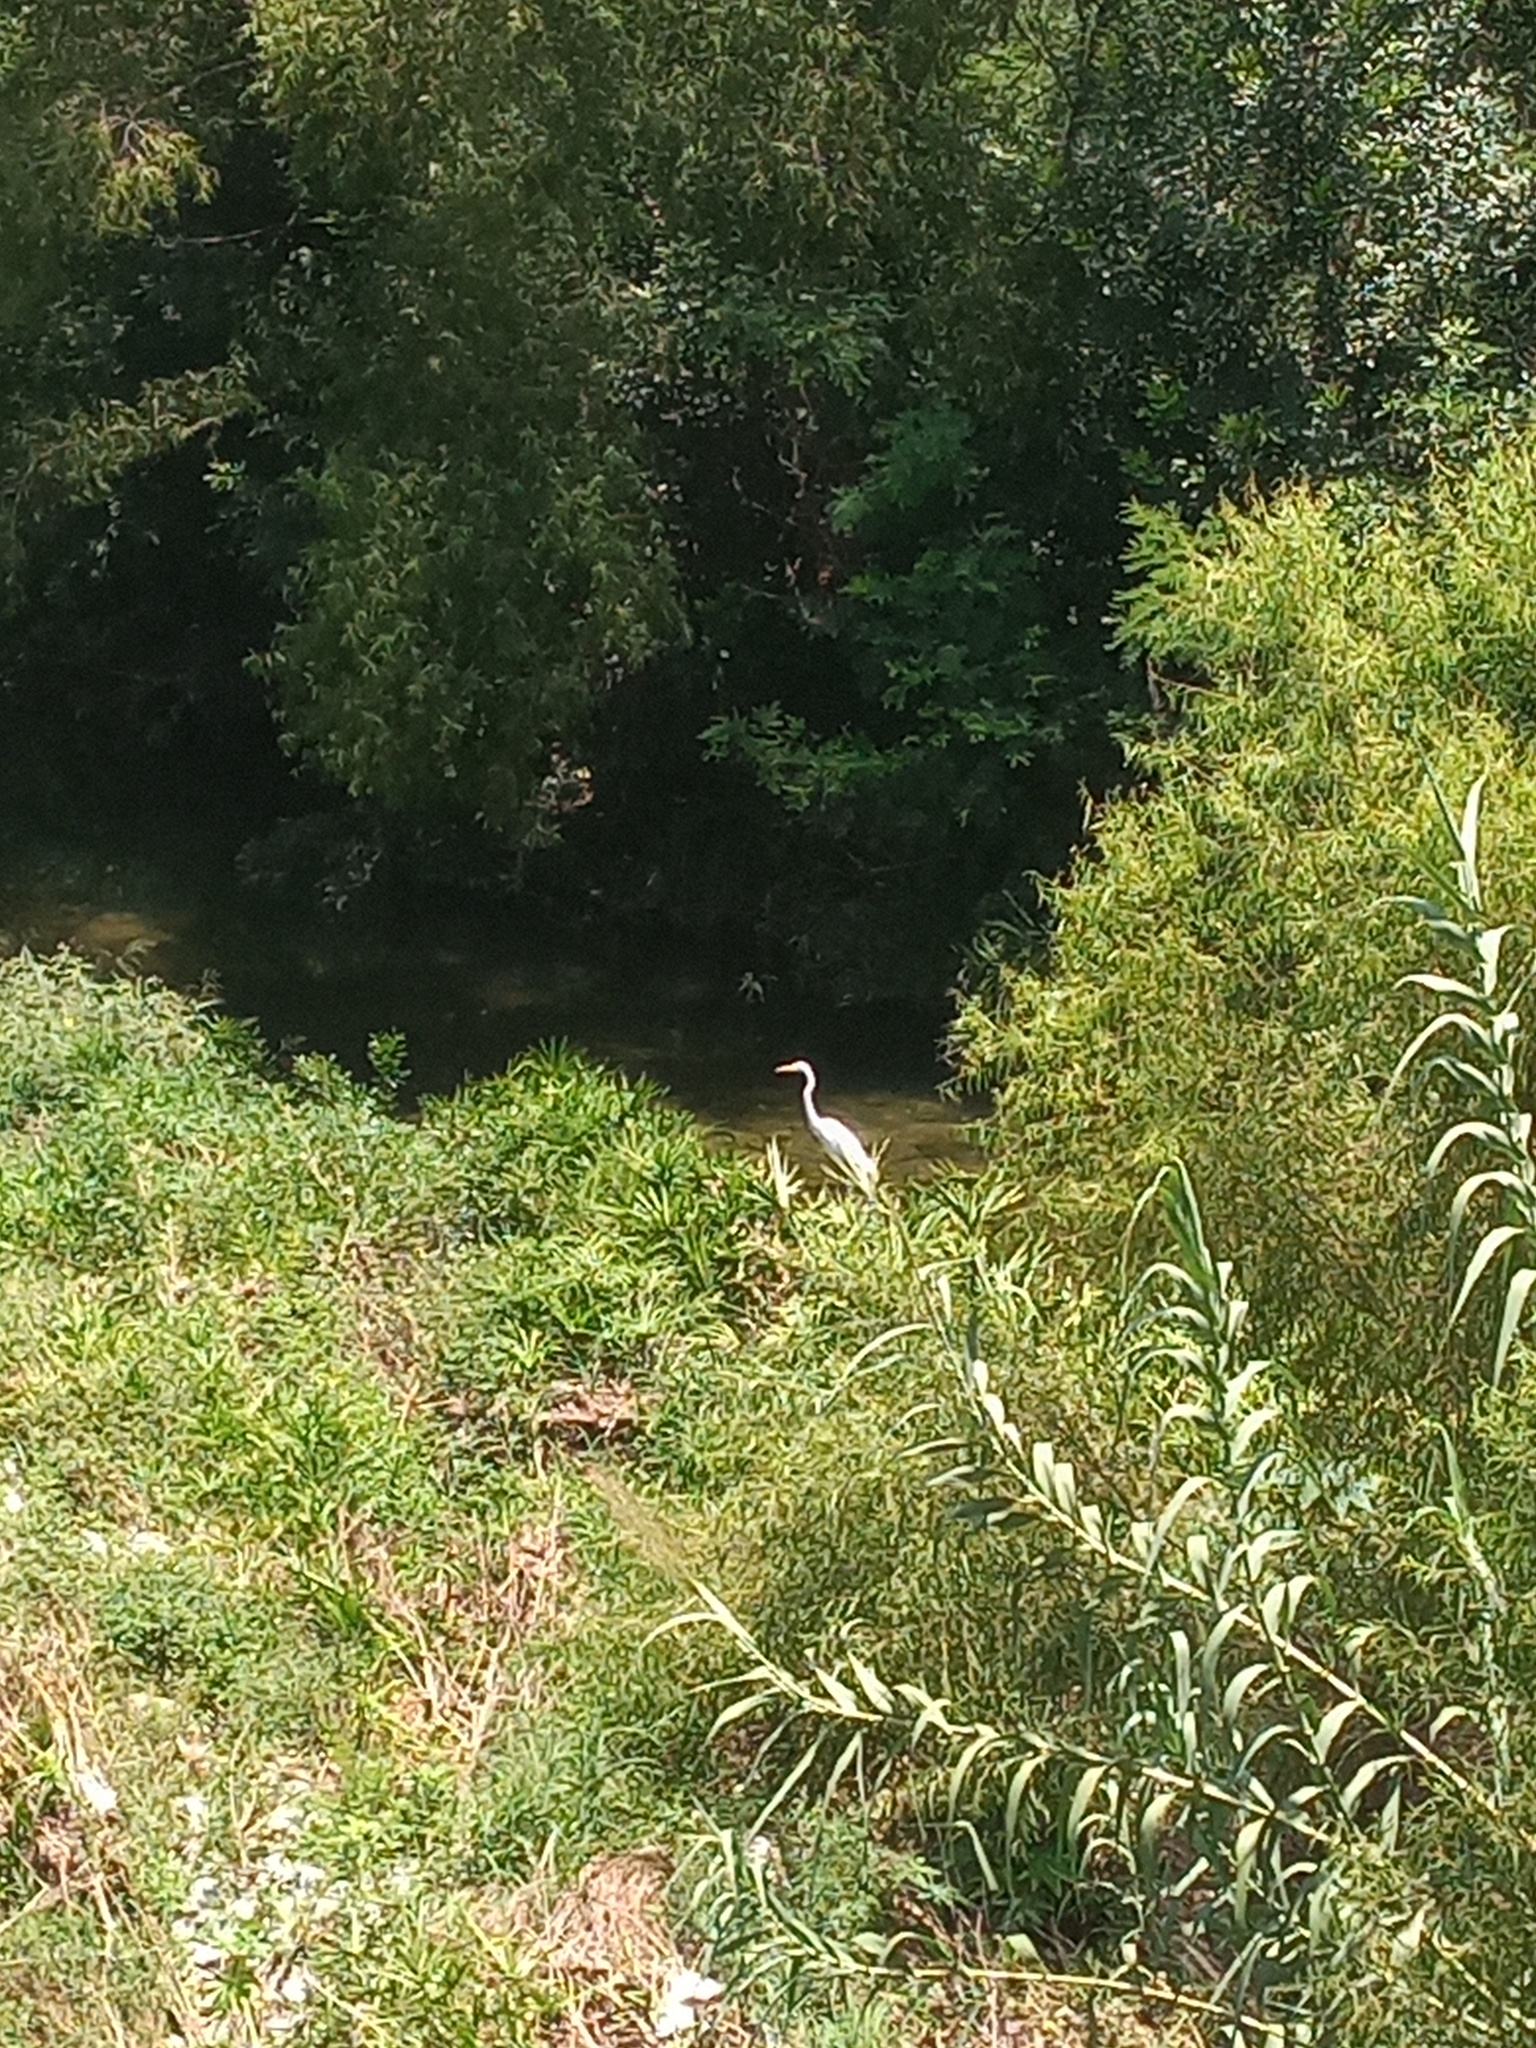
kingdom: Animalia
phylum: Chordata
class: Aves
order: Pelecaniformes
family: Ardeidae
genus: Ardea
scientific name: Ardea alba
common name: Great egret
